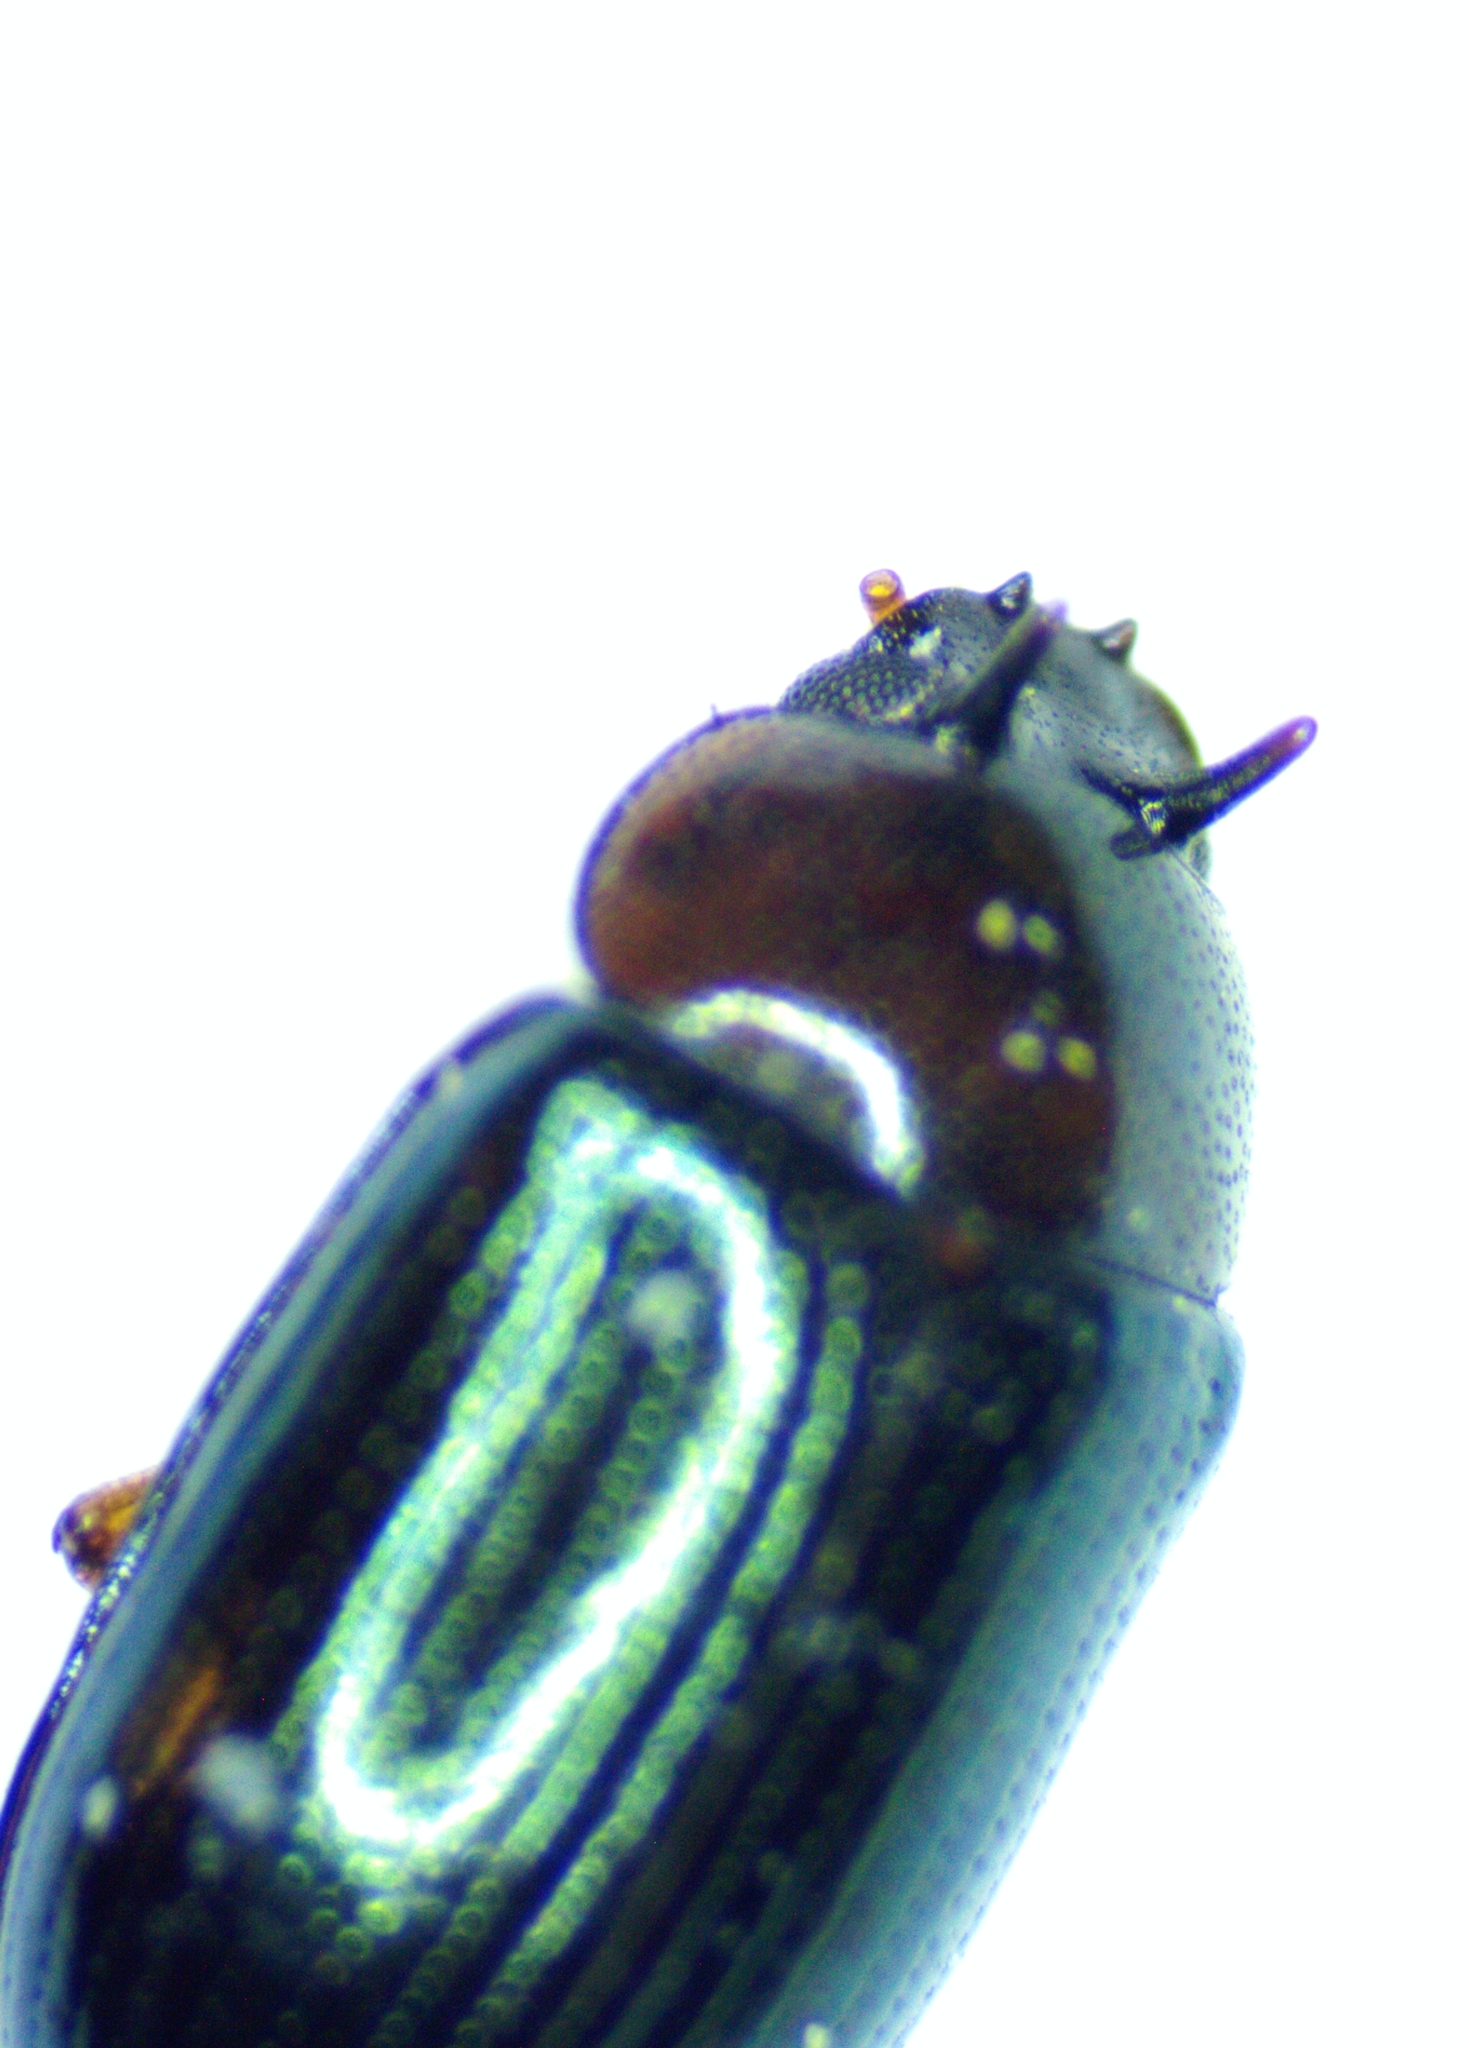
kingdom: Animalia
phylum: Arthropoda
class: Insecta
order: Coleoptera
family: Tenebrionidae
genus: Neomida
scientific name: Neomida bicornis
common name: Two-horned darkling beetle
